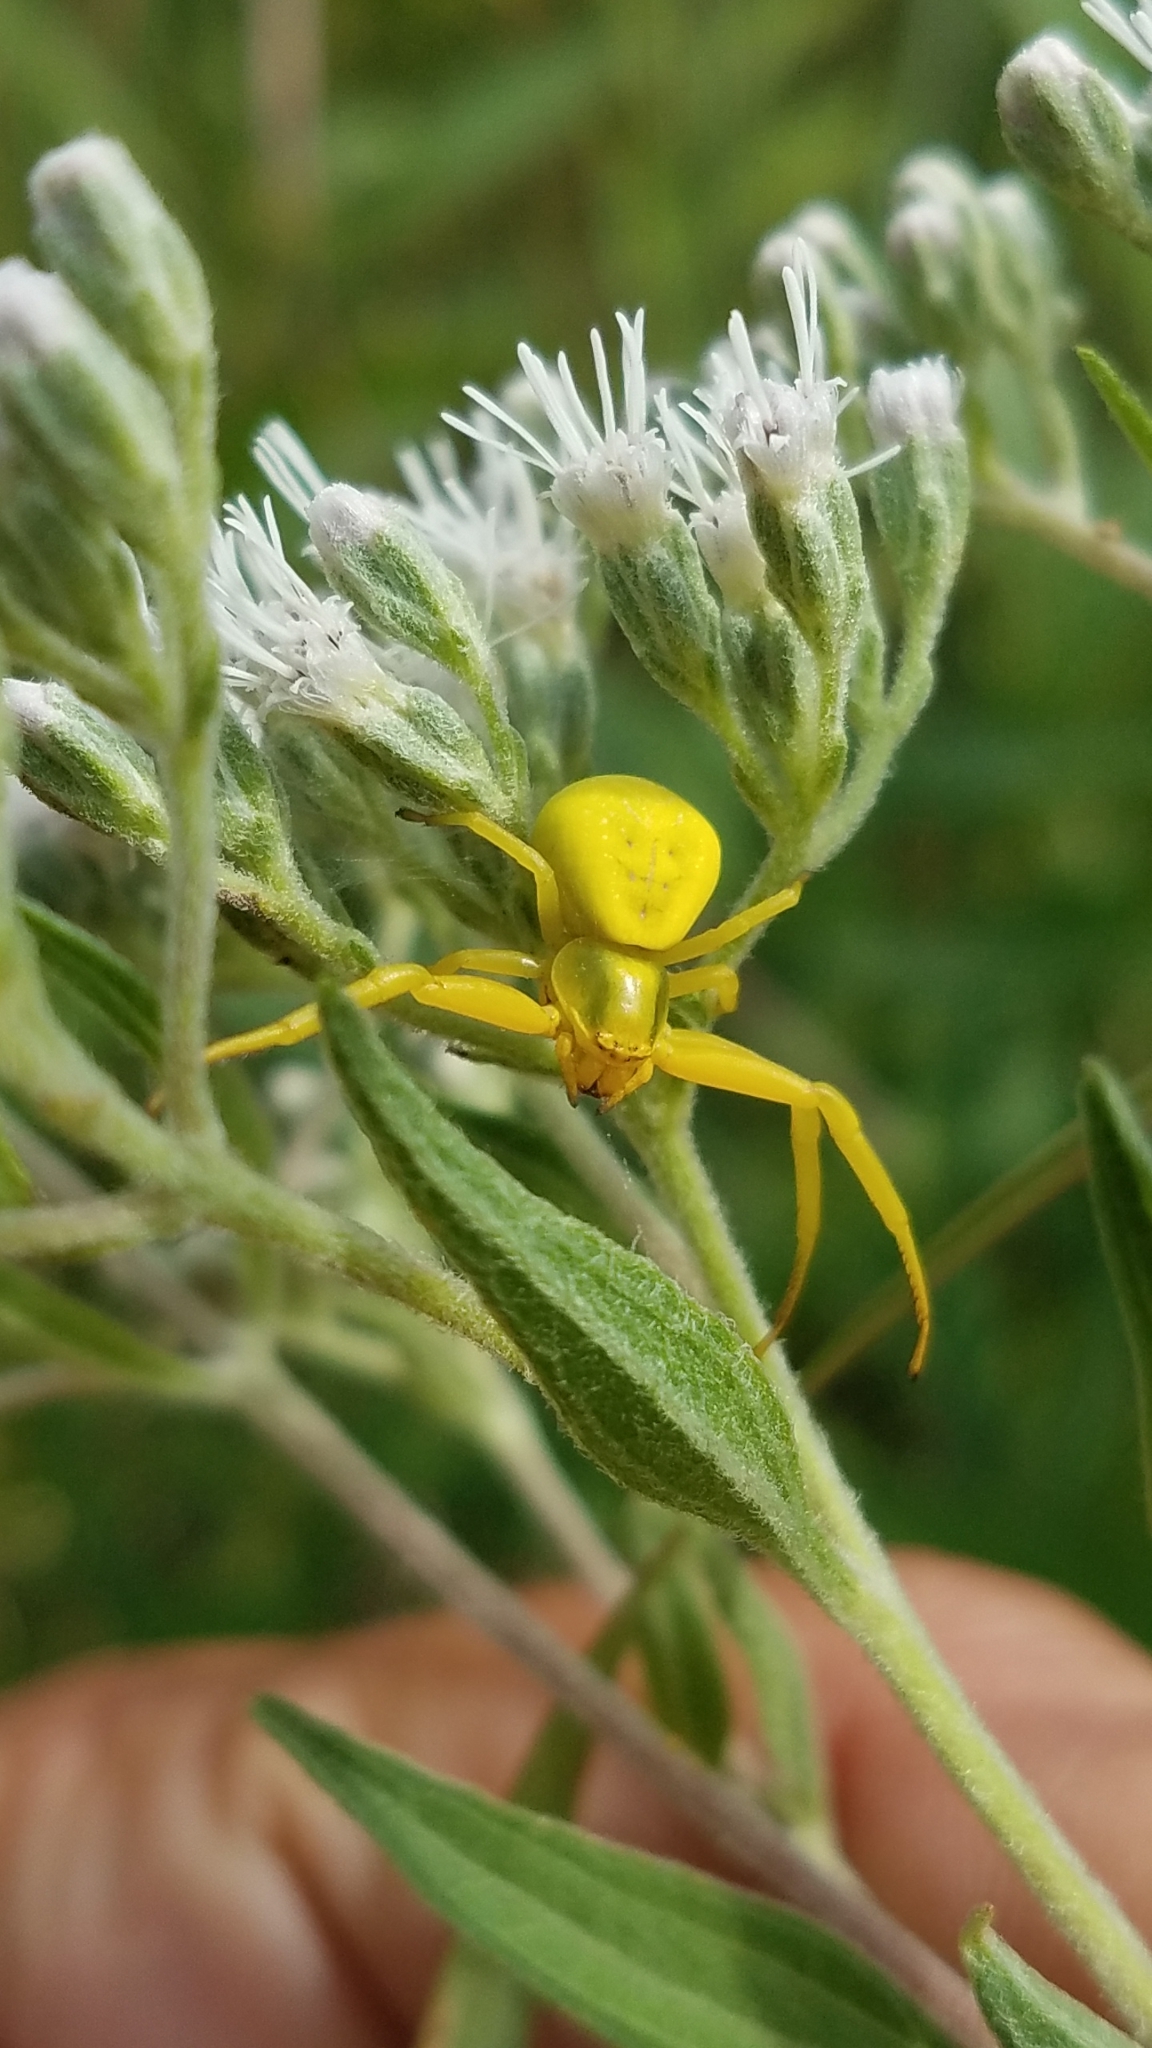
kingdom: Animalia
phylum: Arthropoda
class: Arachnida
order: Araneae
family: Thomisidae
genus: Misumenoides
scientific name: Misumenoides formosipes
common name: White-banded crab spider
